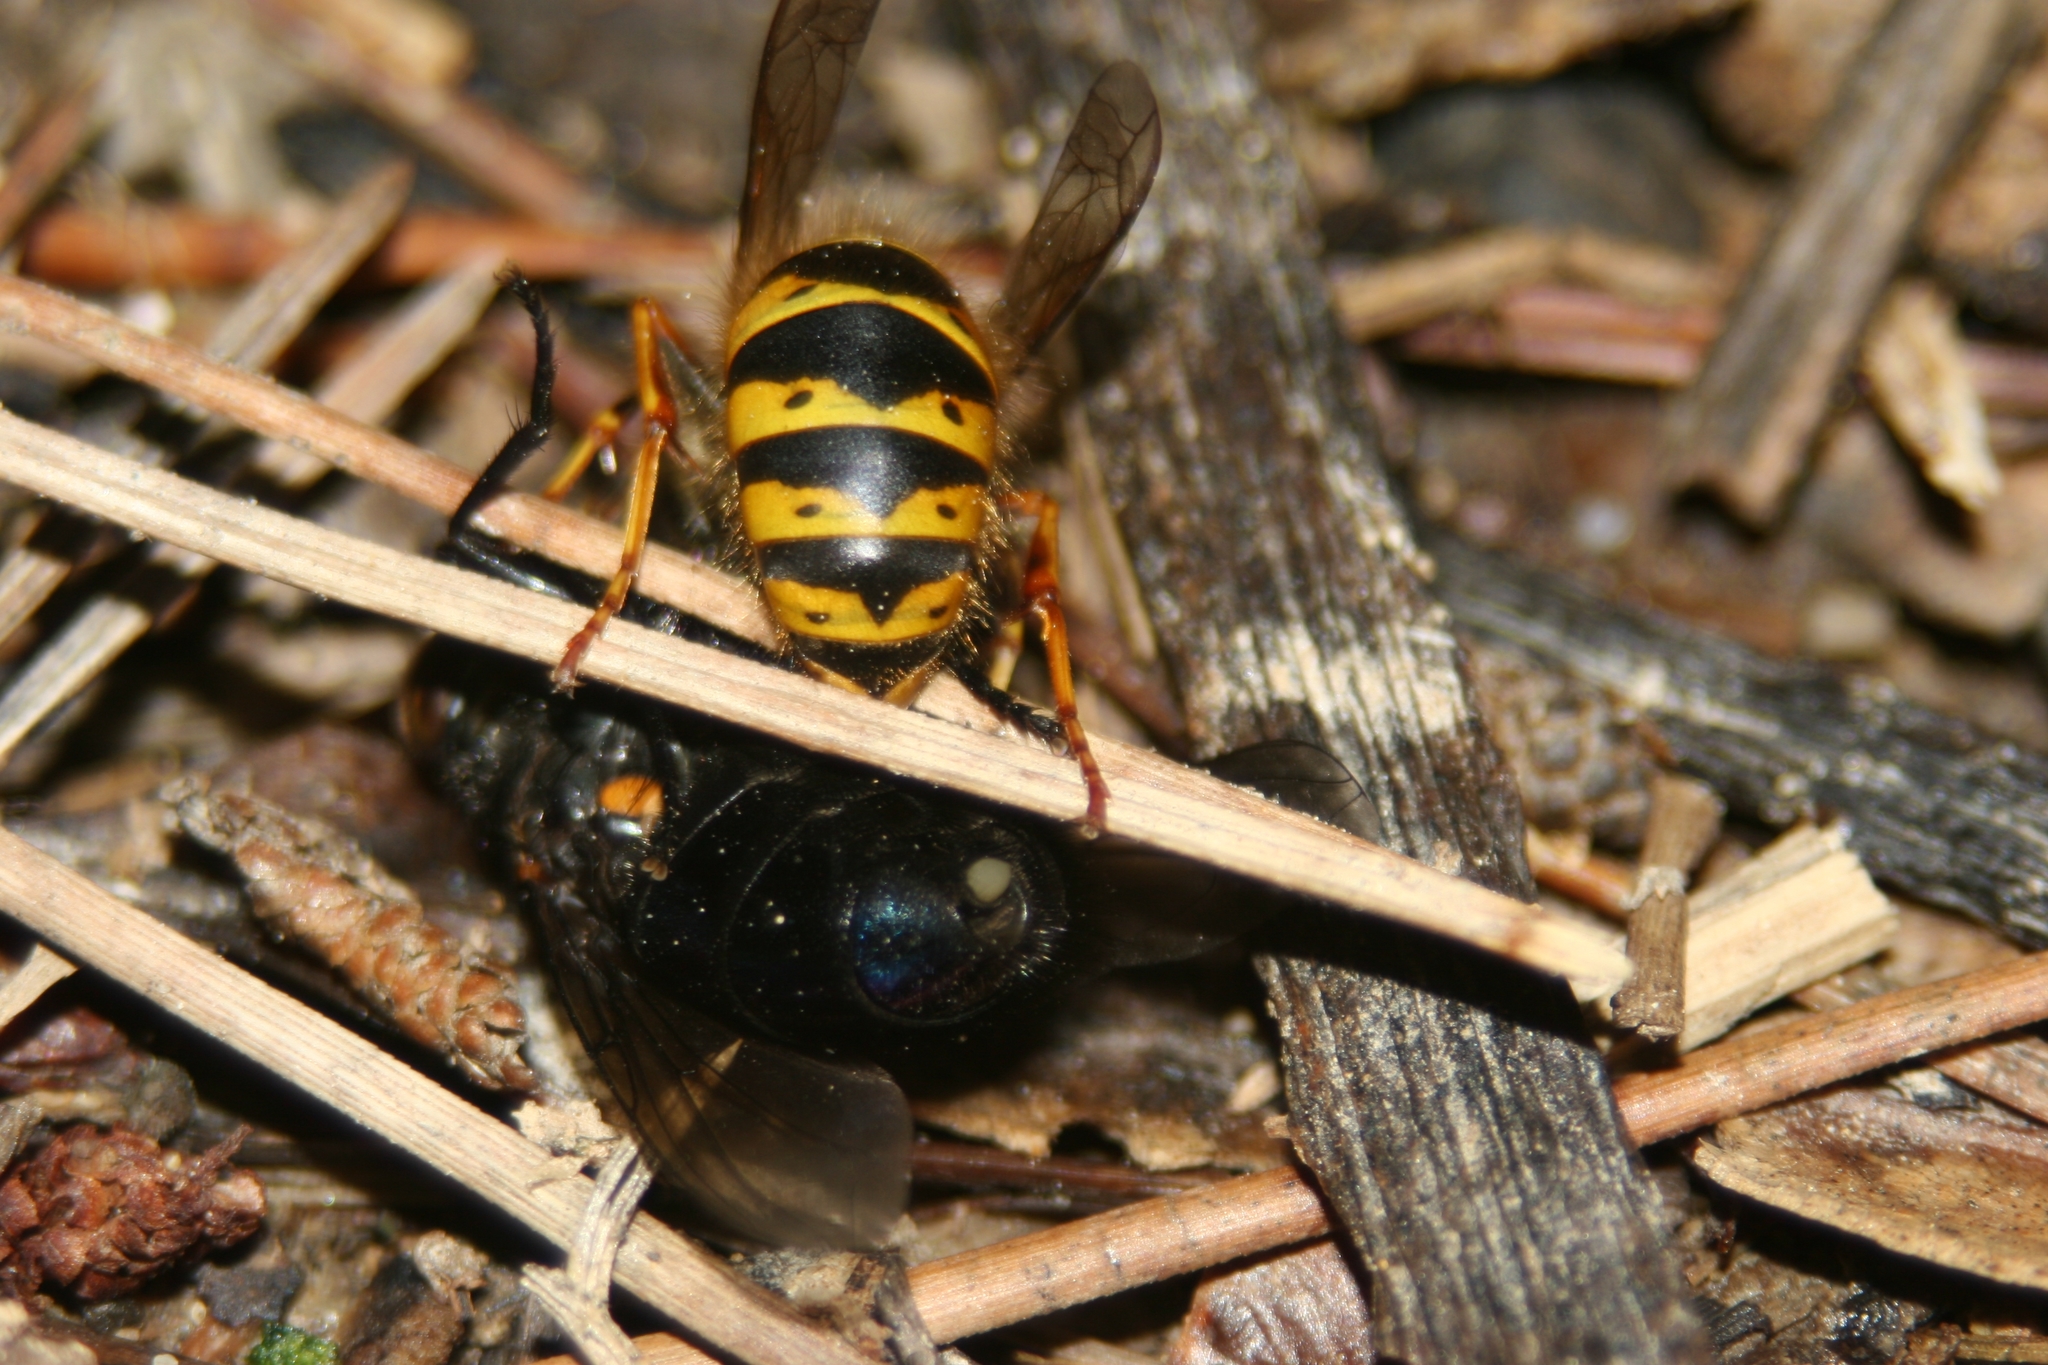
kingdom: Animalia
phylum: Arthropoda
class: Insecta
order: Hymenoptera
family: Vespidae
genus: Vespula
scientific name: Vespula vulgaris
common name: Common wasp
